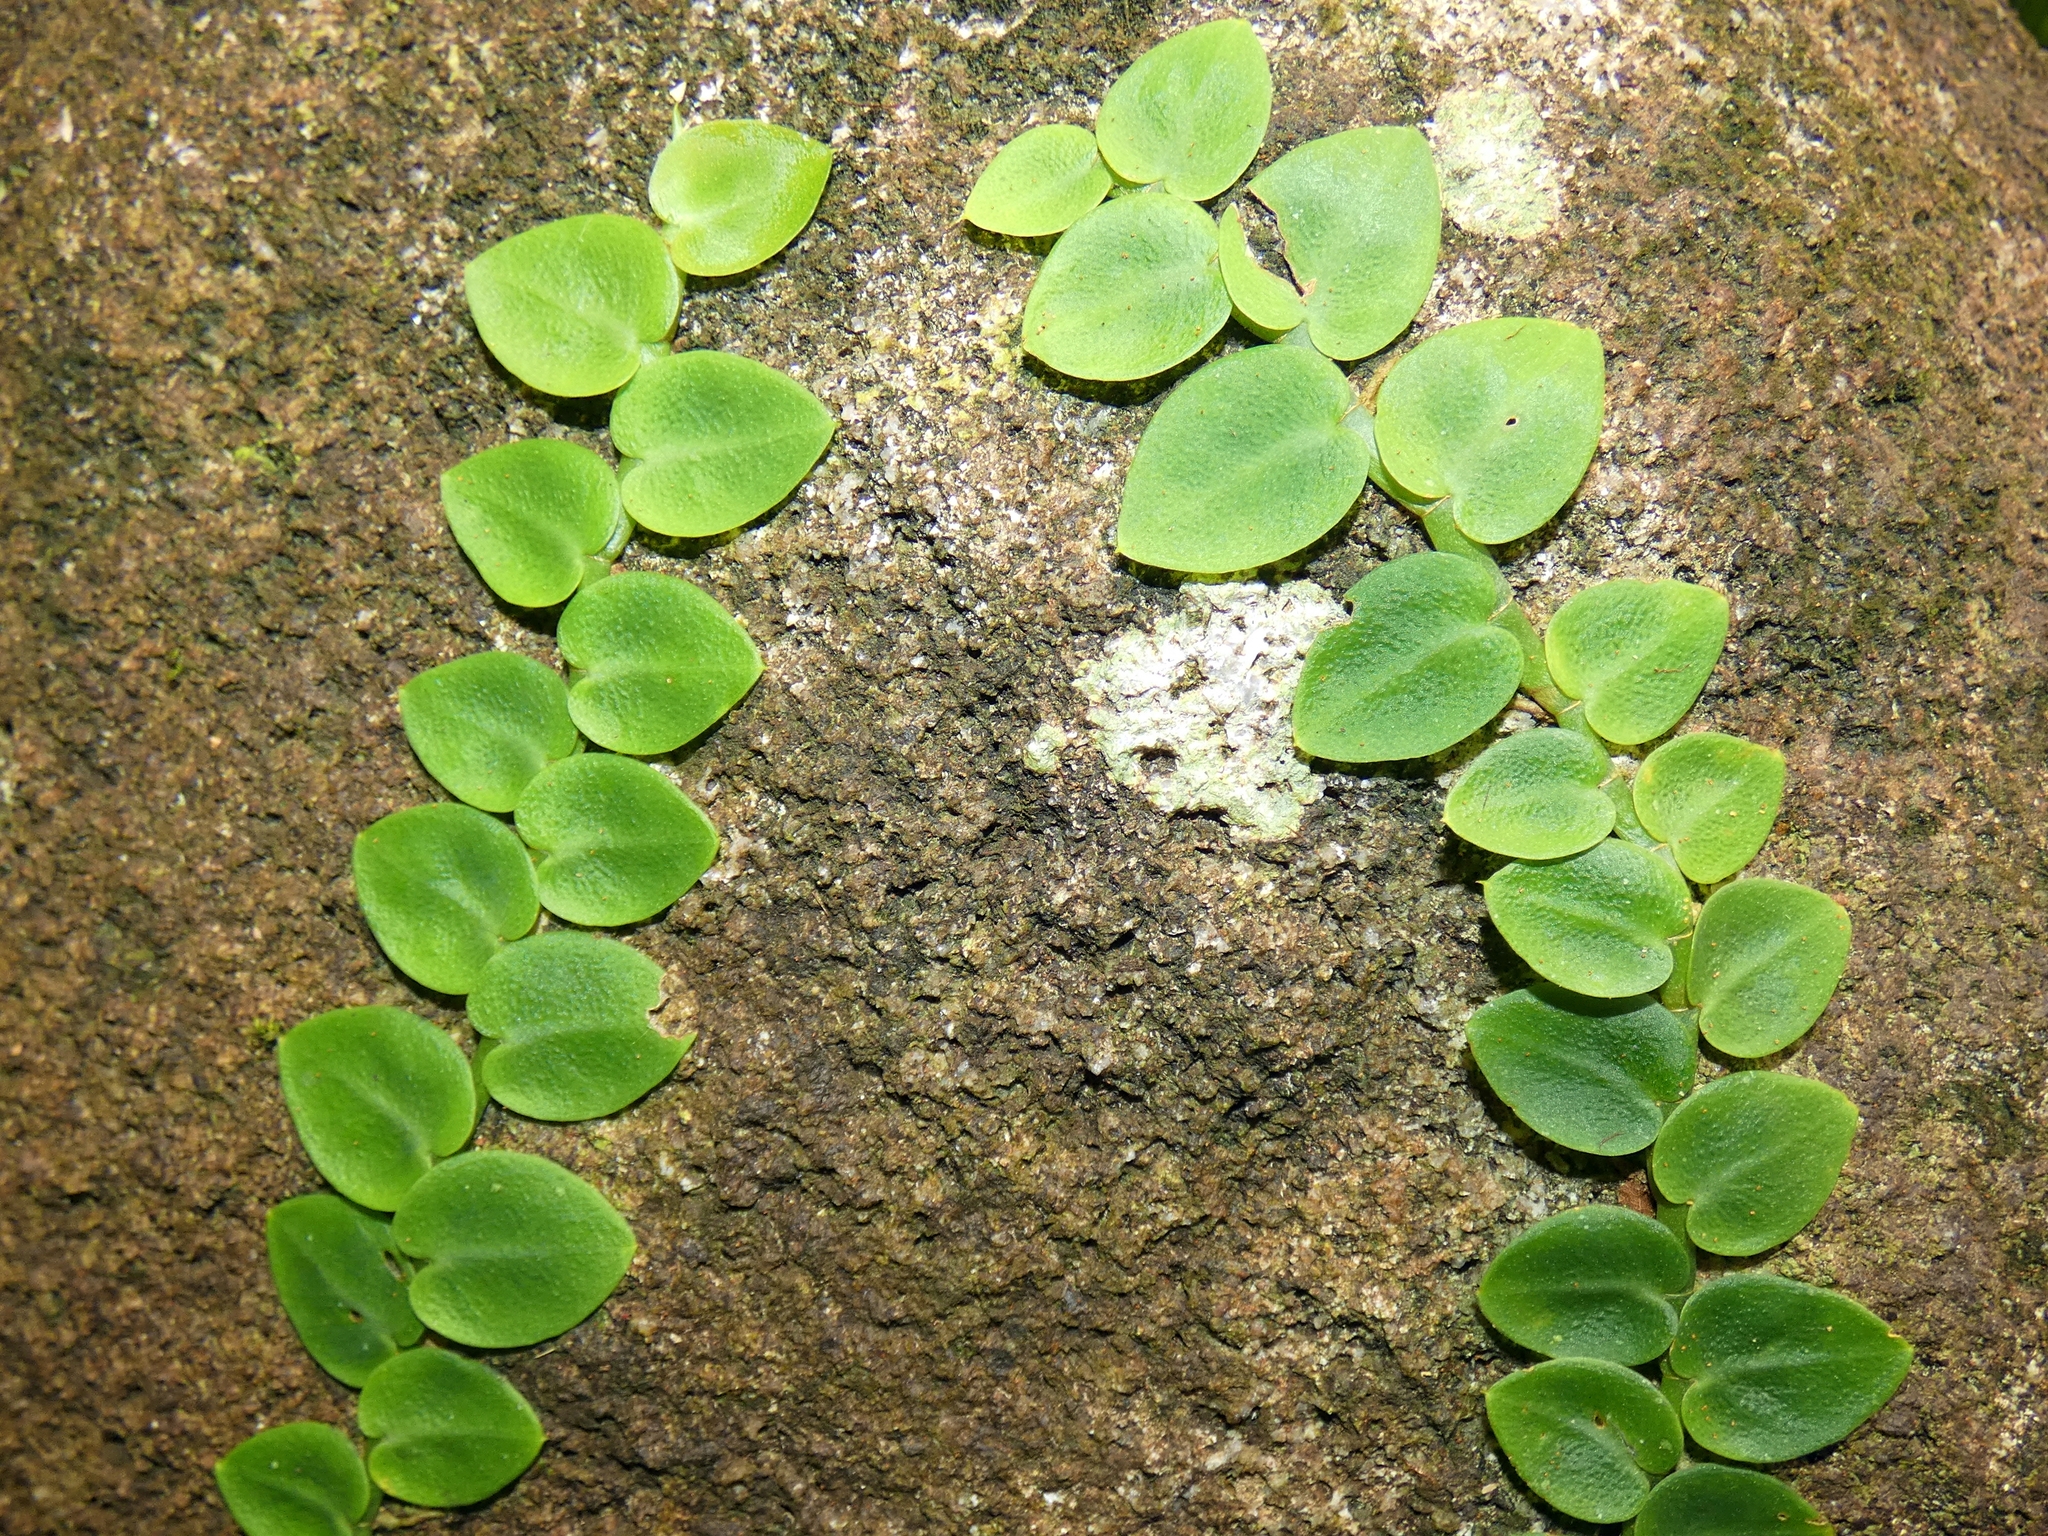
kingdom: Plantae
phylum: Tracheophyta
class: Liliopsida
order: Alismatales
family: Araceae
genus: Rhaphidophora
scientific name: Rhaphidophora hayi
